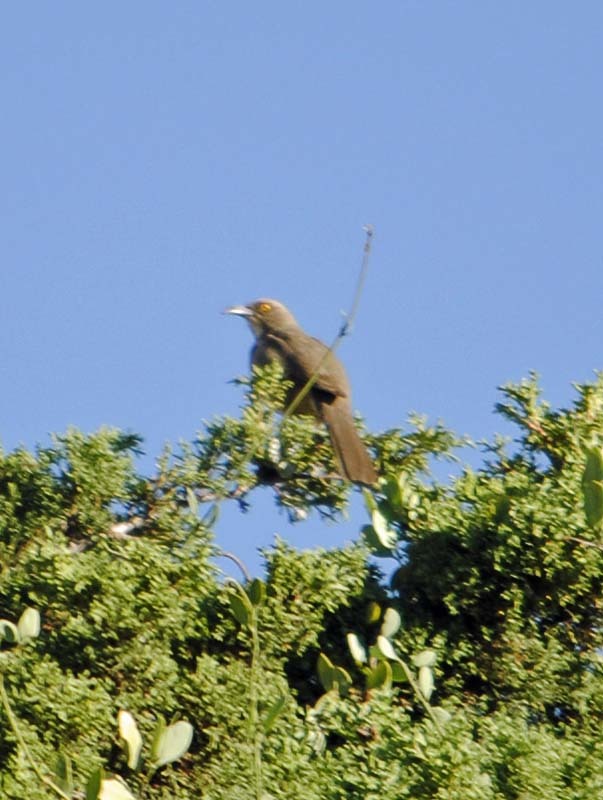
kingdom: Animalia
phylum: Chordata
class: Aves
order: Passeriformes
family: Mimidae
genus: Toxostoma
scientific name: Toxostoma curvirostre
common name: Curve-billed thrasher
